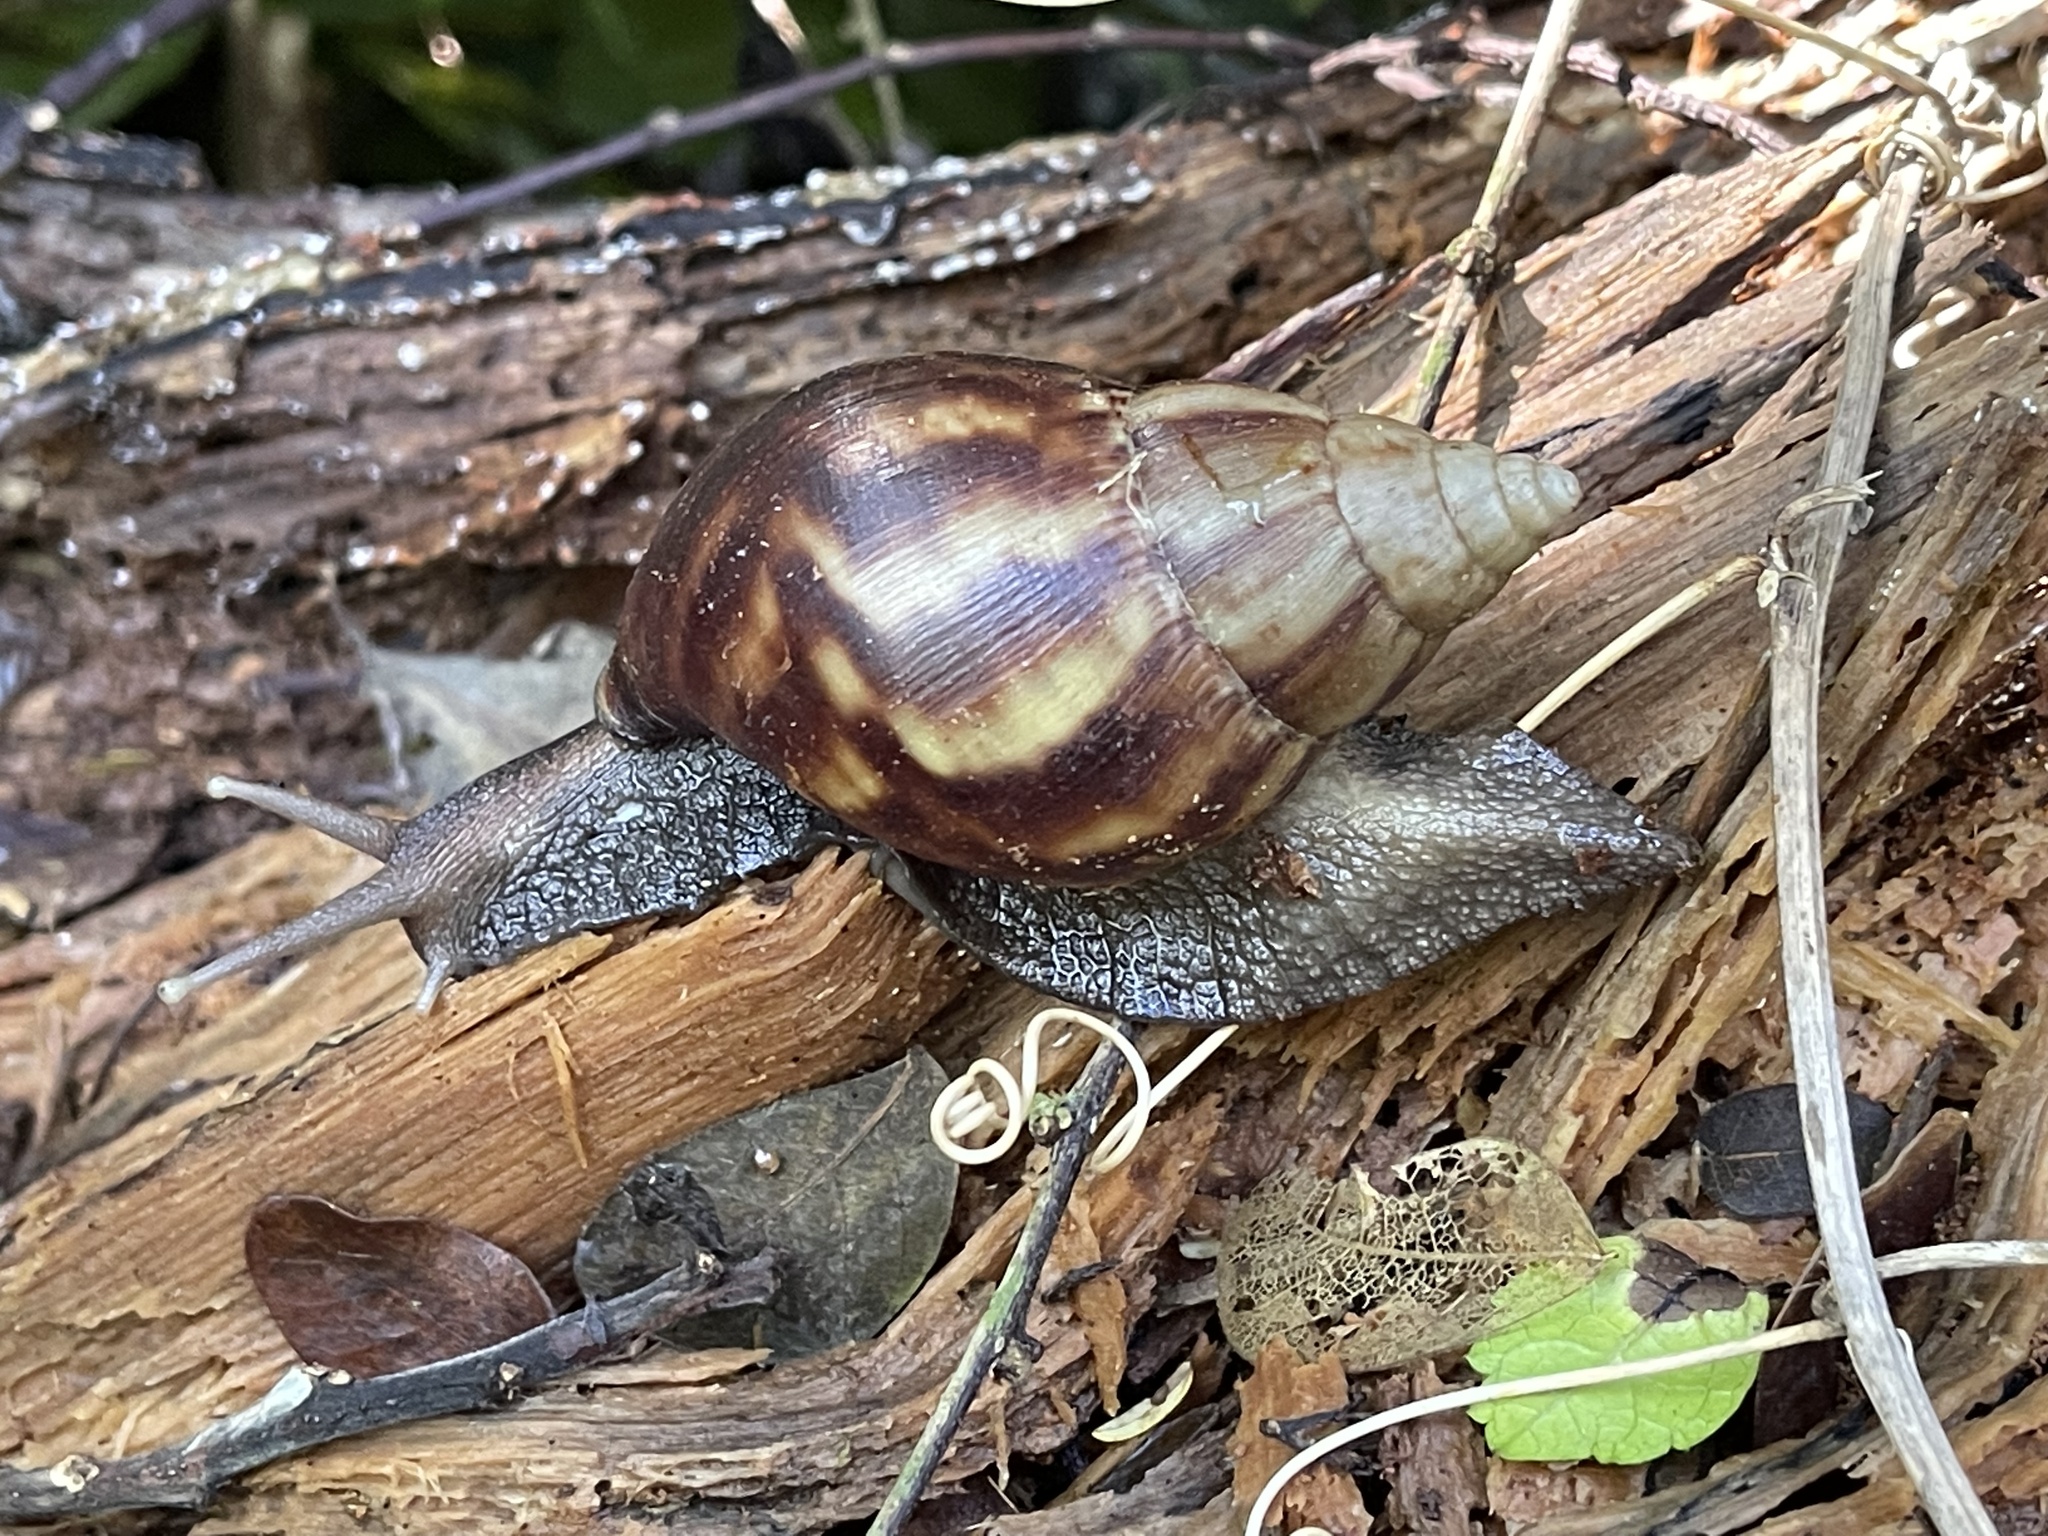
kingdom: Animalia
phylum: Mollusca
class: Gastropoda
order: Stylommatophora
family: Achatinidae
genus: Lissachatina
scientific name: Lissachatina fulica
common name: Giant african snail
